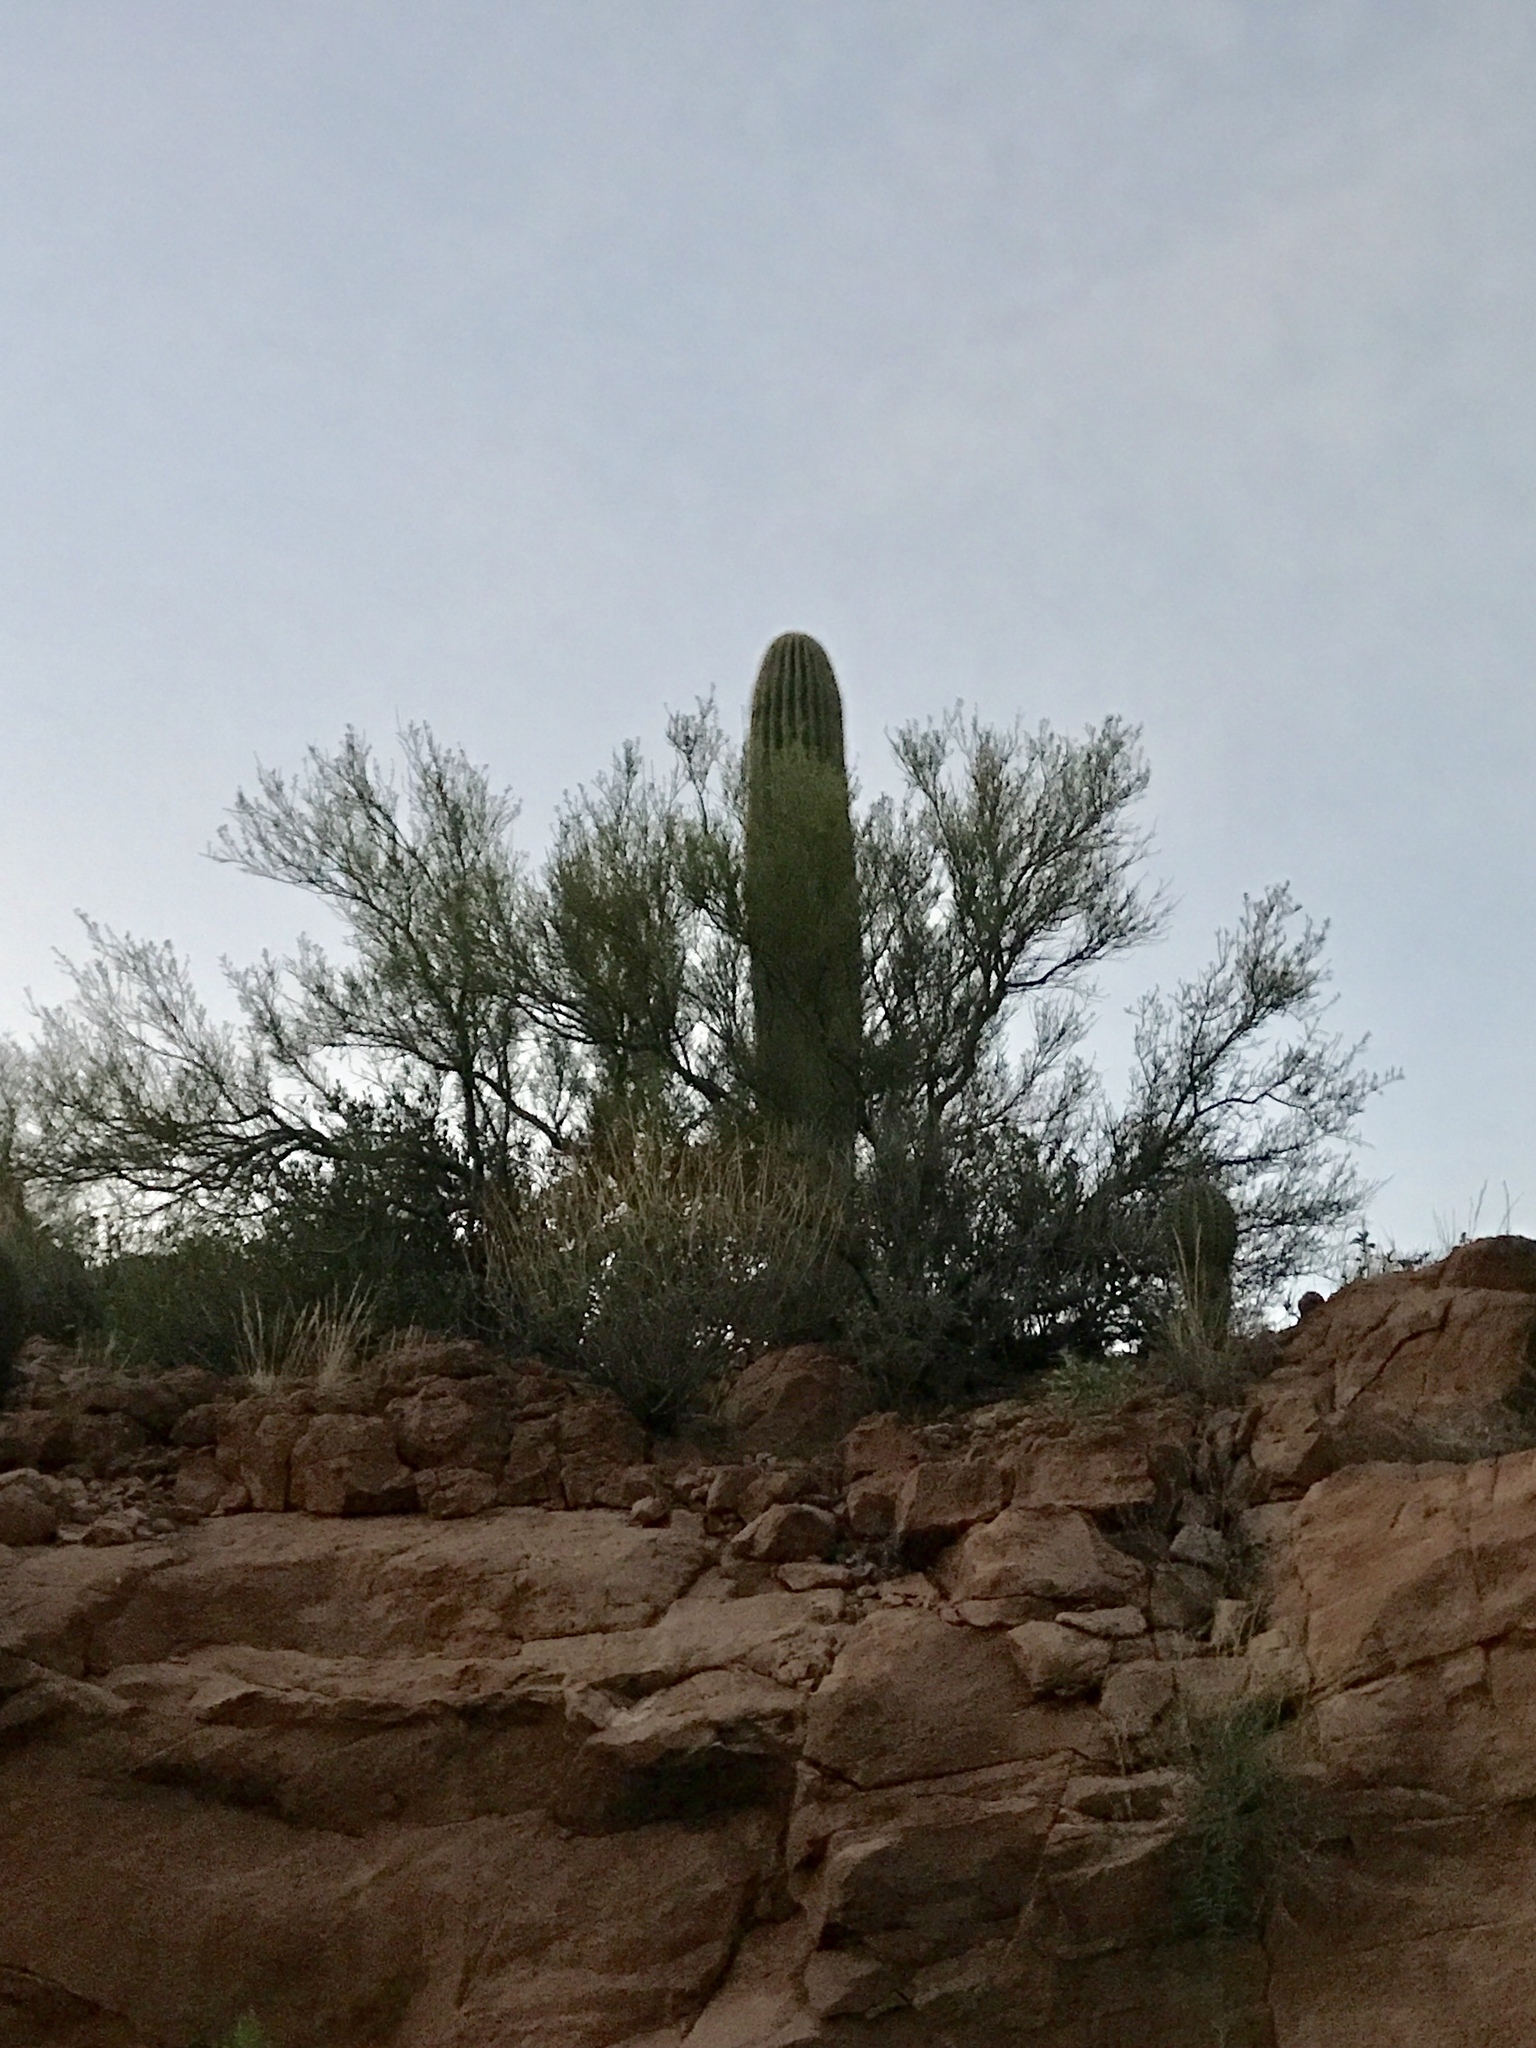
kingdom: Plantae
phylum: Tracheophyta
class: Magnoliopsida
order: Caryophyllales
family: Cactaceae
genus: Carnegiea
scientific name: Carnegiea gigantea
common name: Saguaro
